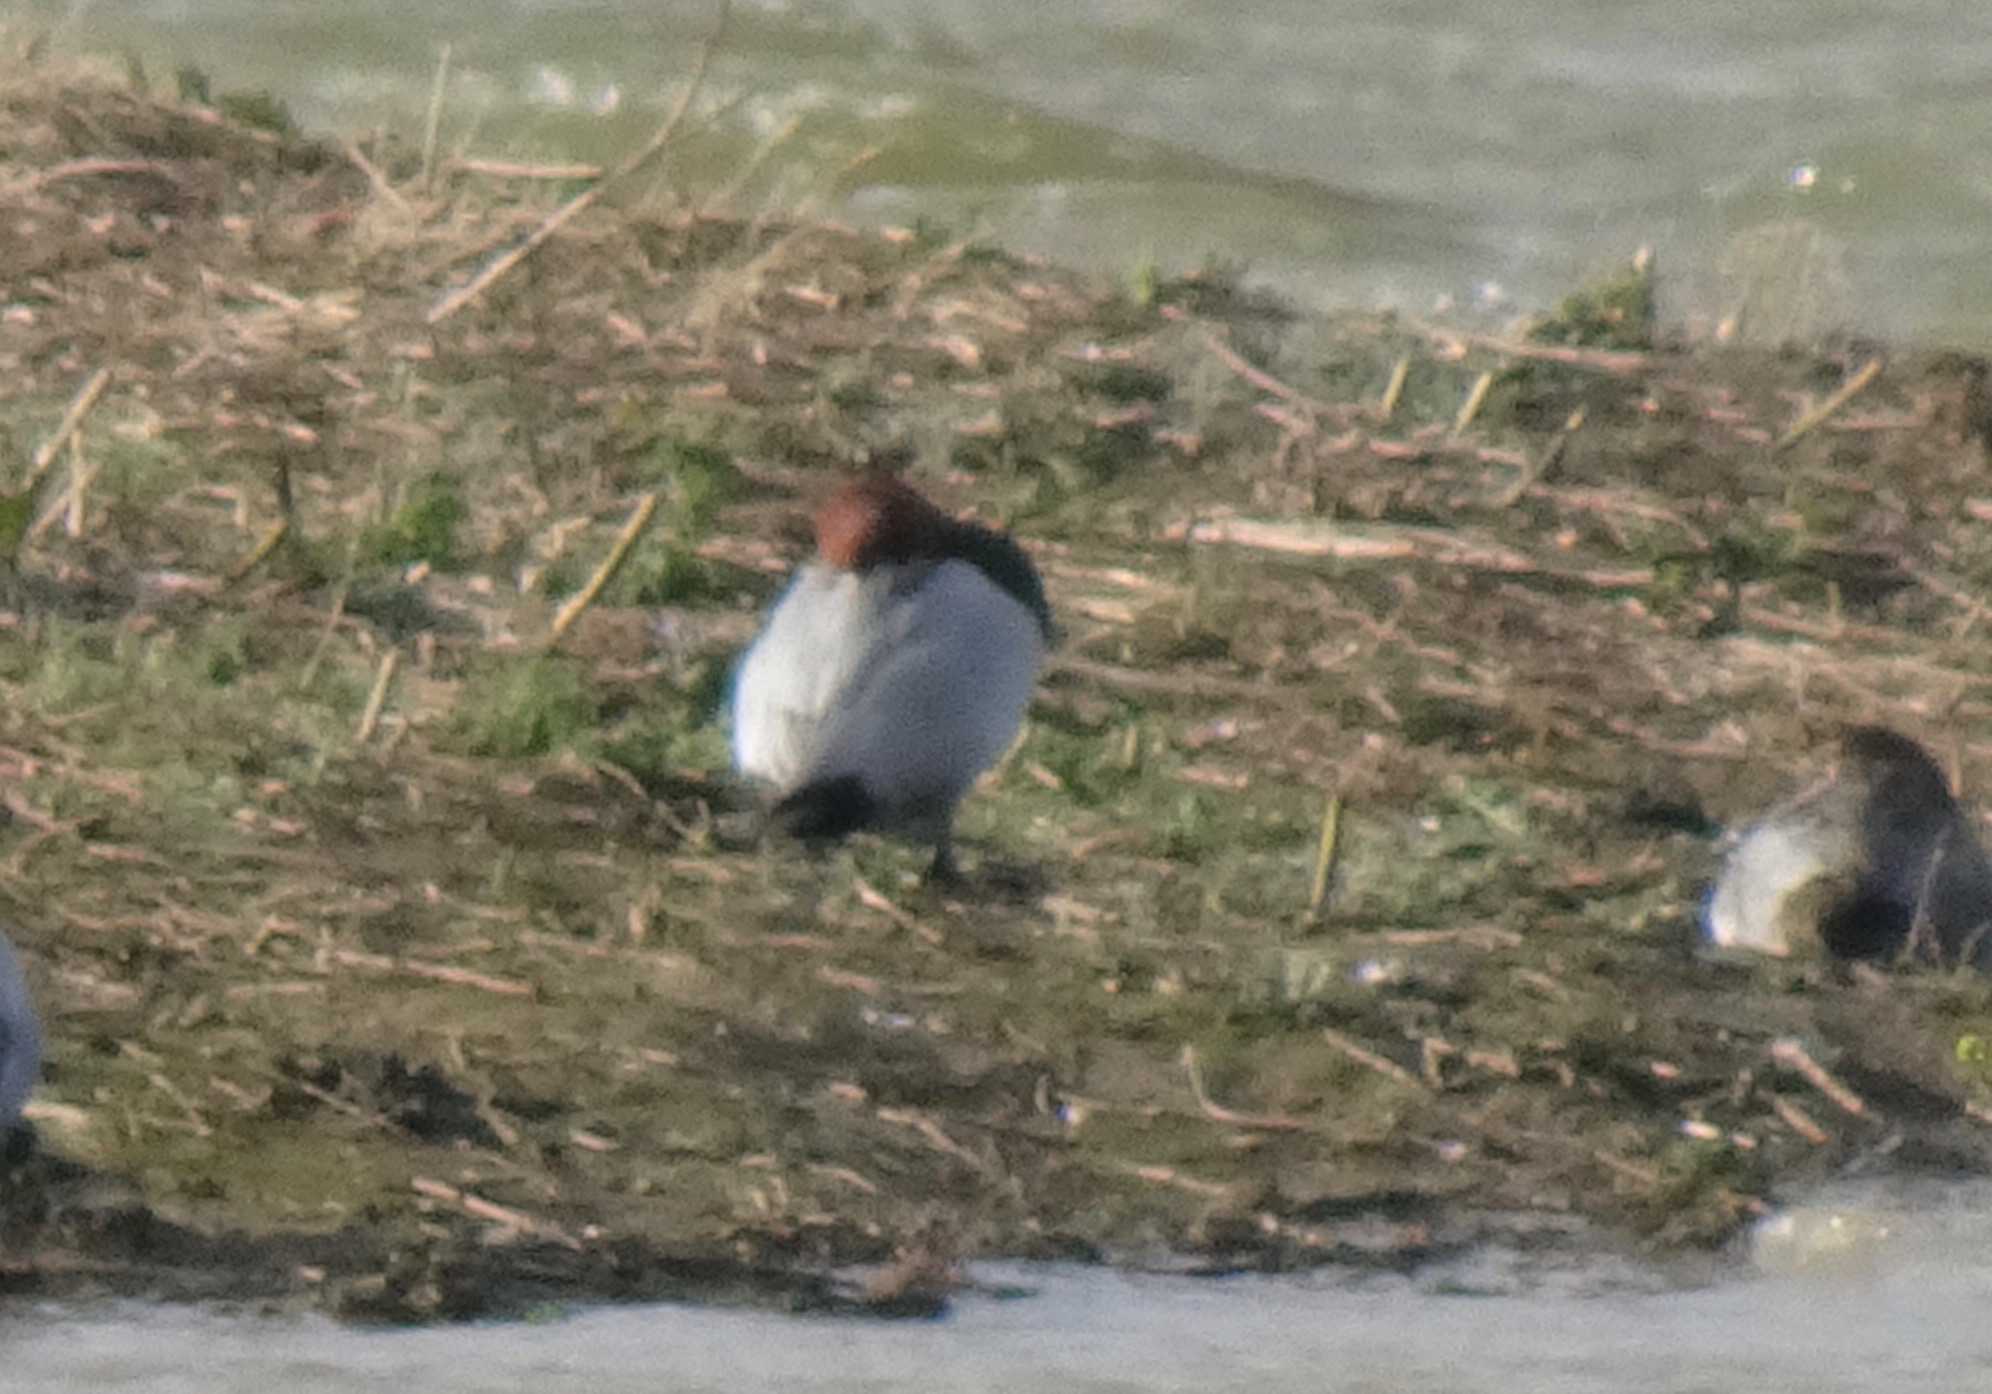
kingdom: Animalia
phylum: Chordata
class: Aves
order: Anseriformes
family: Anatidae
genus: Aythya
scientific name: Aythya ferina
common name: Common pochard
